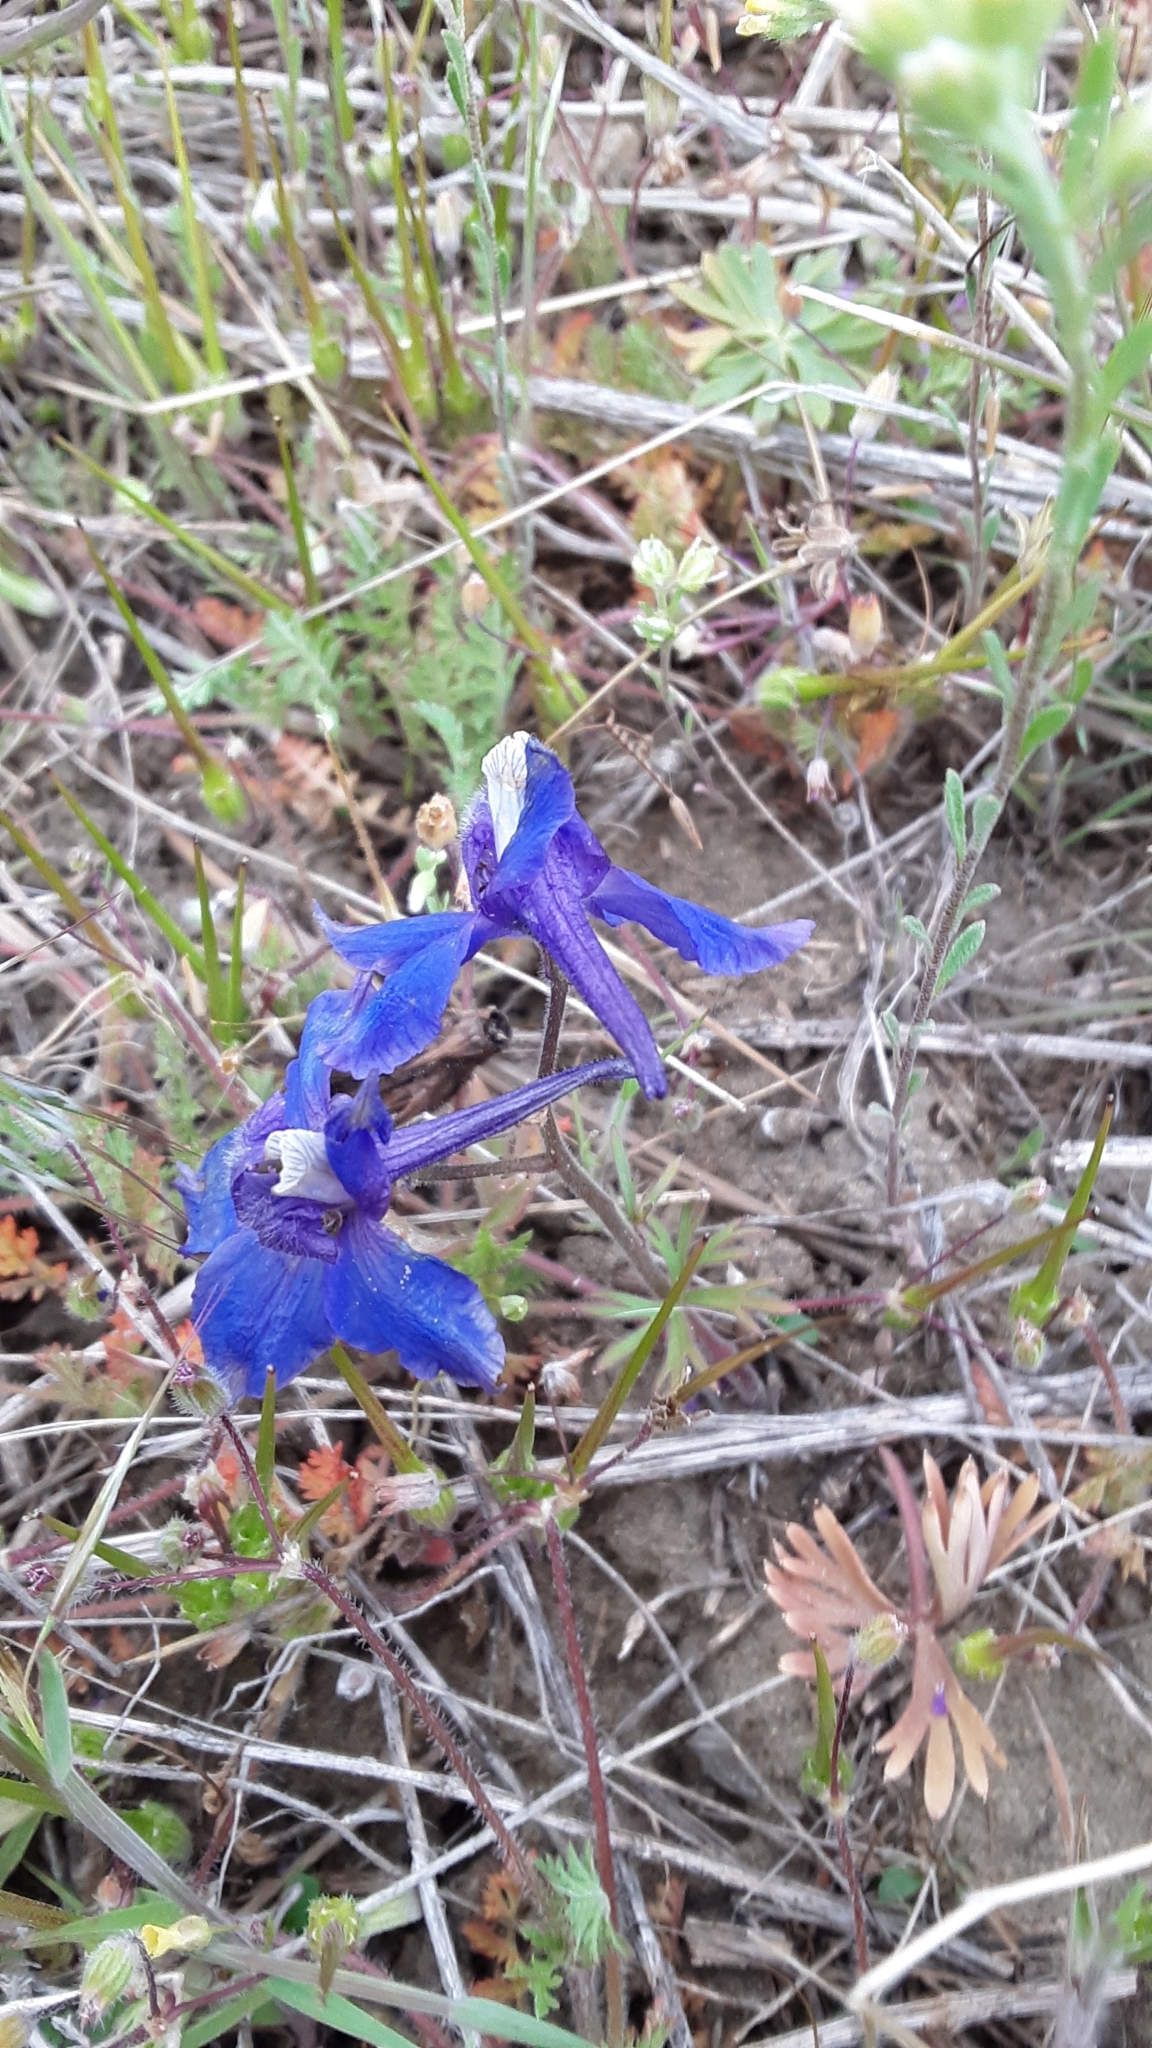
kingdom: Plantae
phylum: Tracheophyta
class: Magnoliopsida
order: Ranunculales
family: Ranunculaceae
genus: Delphinium
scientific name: Delphinium bicolor
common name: Low larkspur
